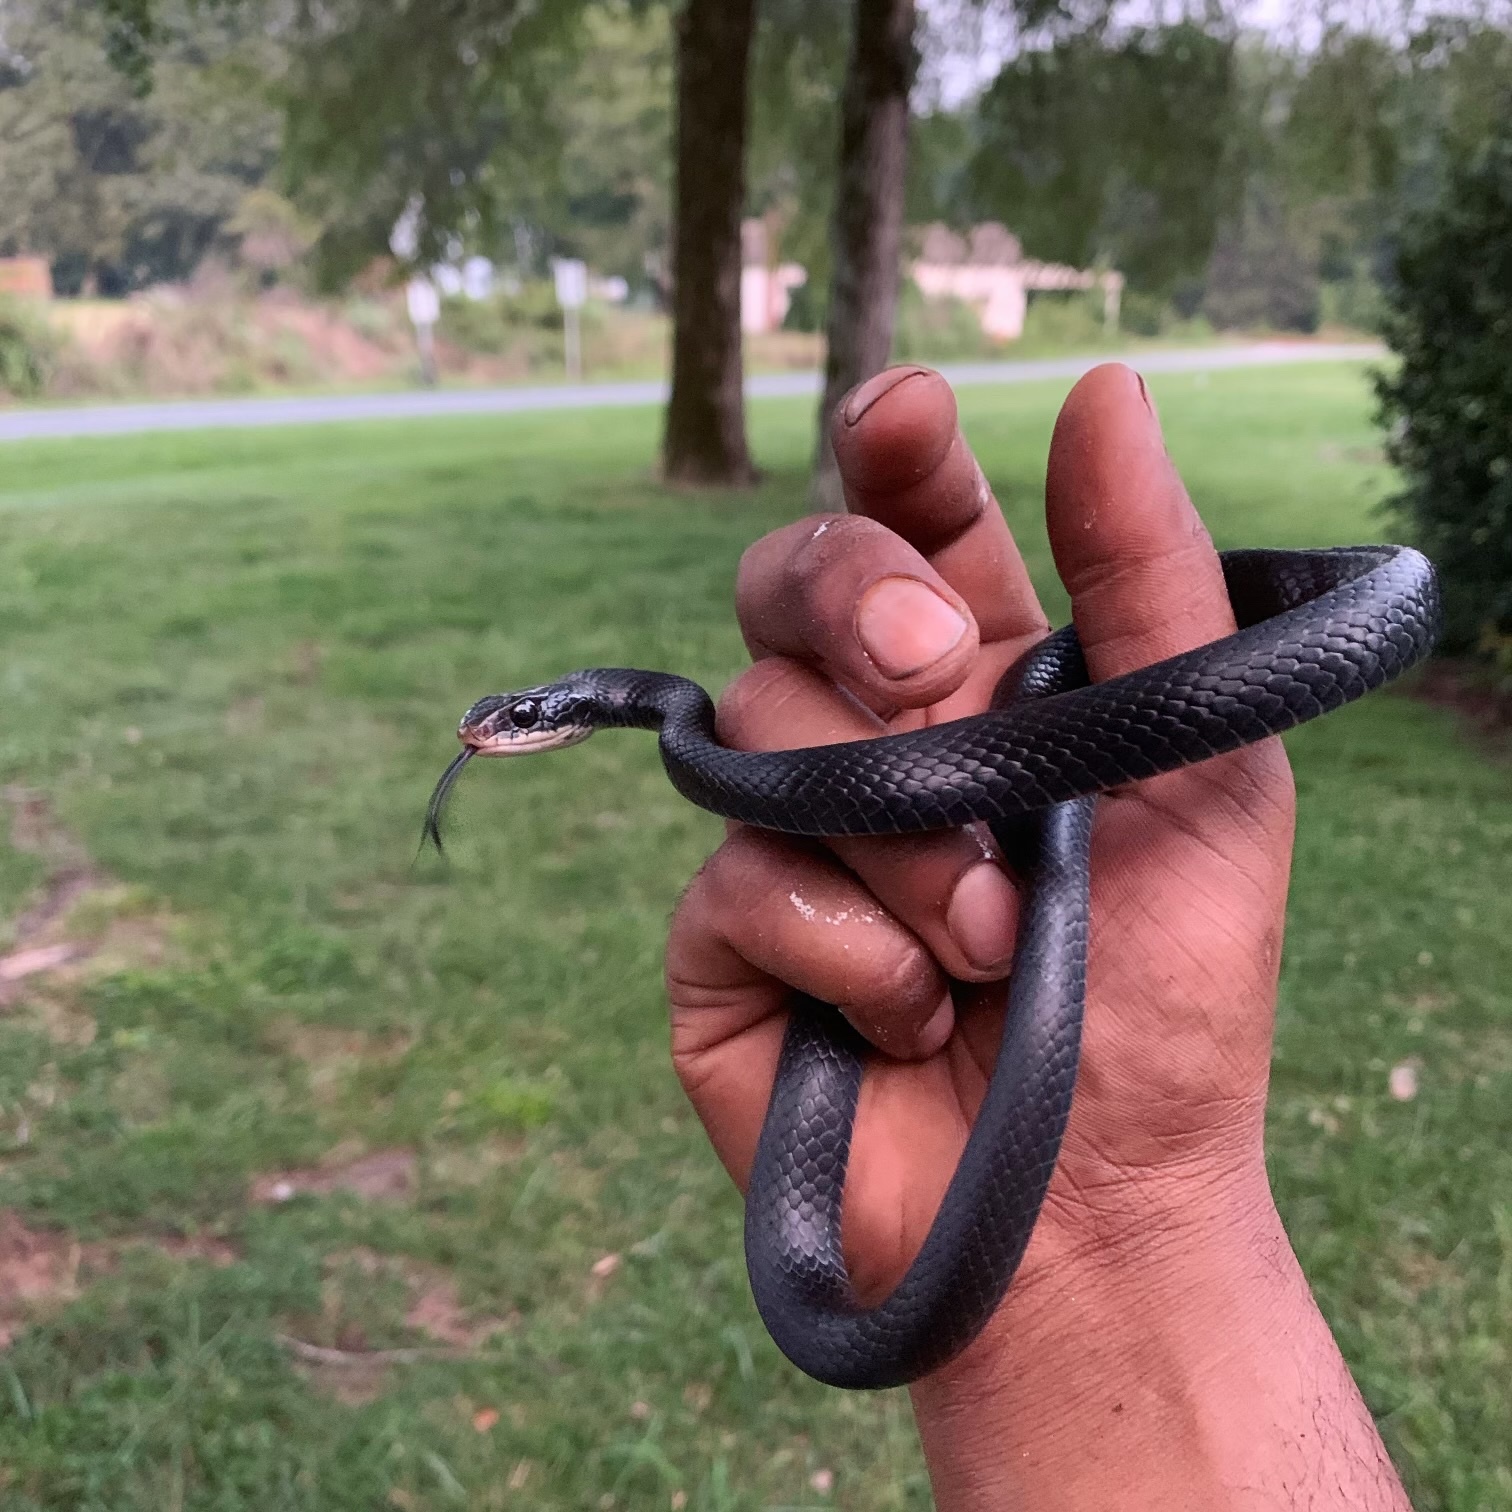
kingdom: Animalia
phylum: Chordata
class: Squamata
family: Colubridae
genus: Coluber
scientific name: Coluber constrictor
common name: Eastern racer
